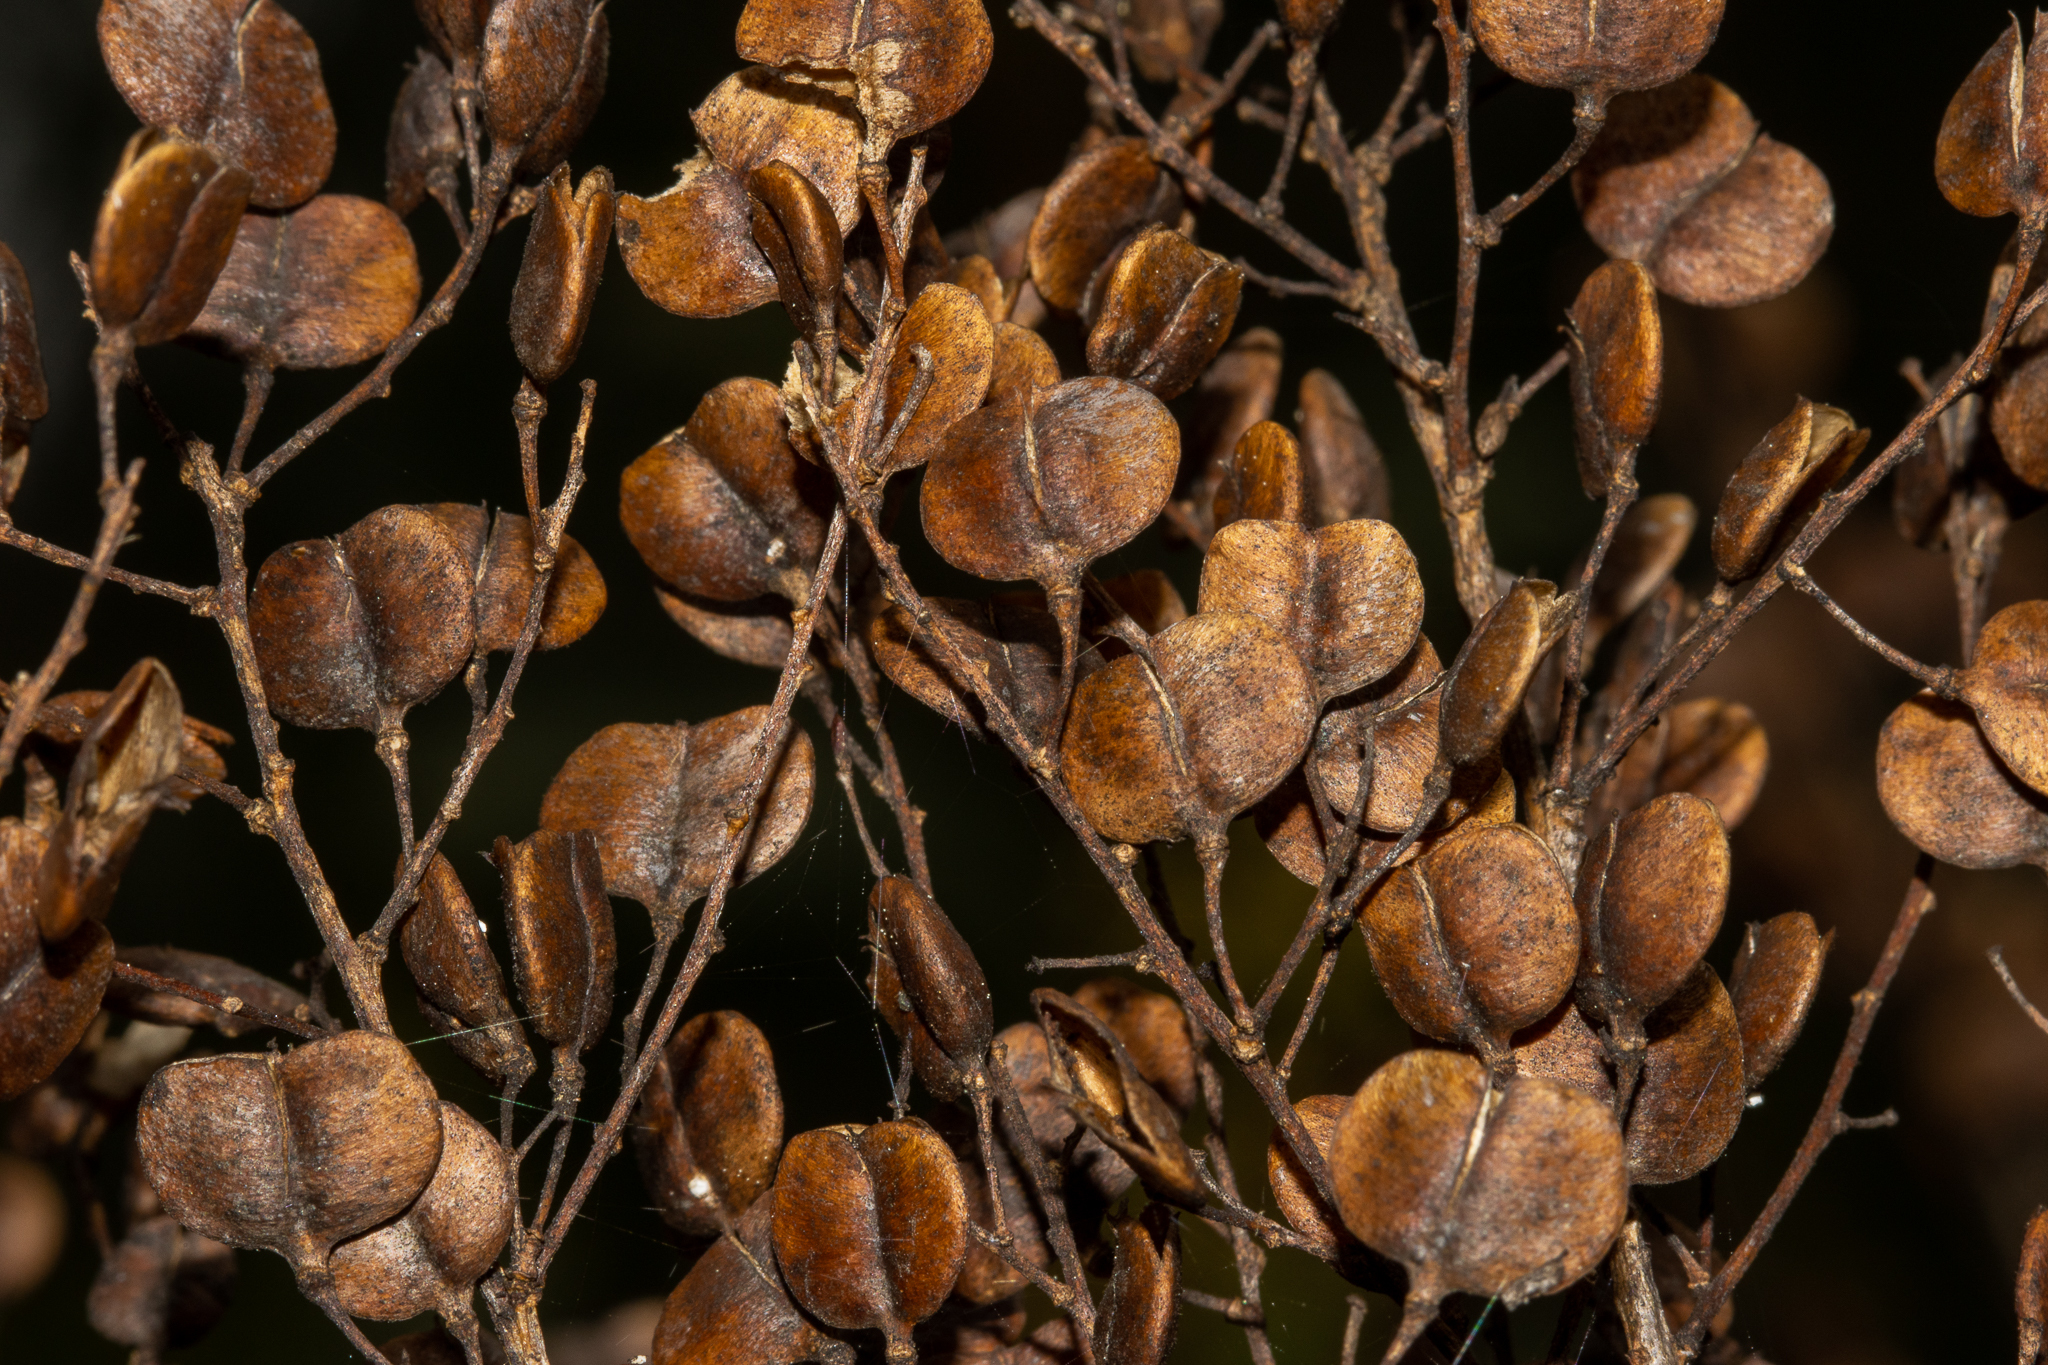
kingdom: Plantae
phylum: Tracheophyta
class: Magnoliopsida
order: Apiales
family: Pittosporaceae
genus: Bursaria
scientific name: Bursaria spinosa
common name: Australian blackthorn
